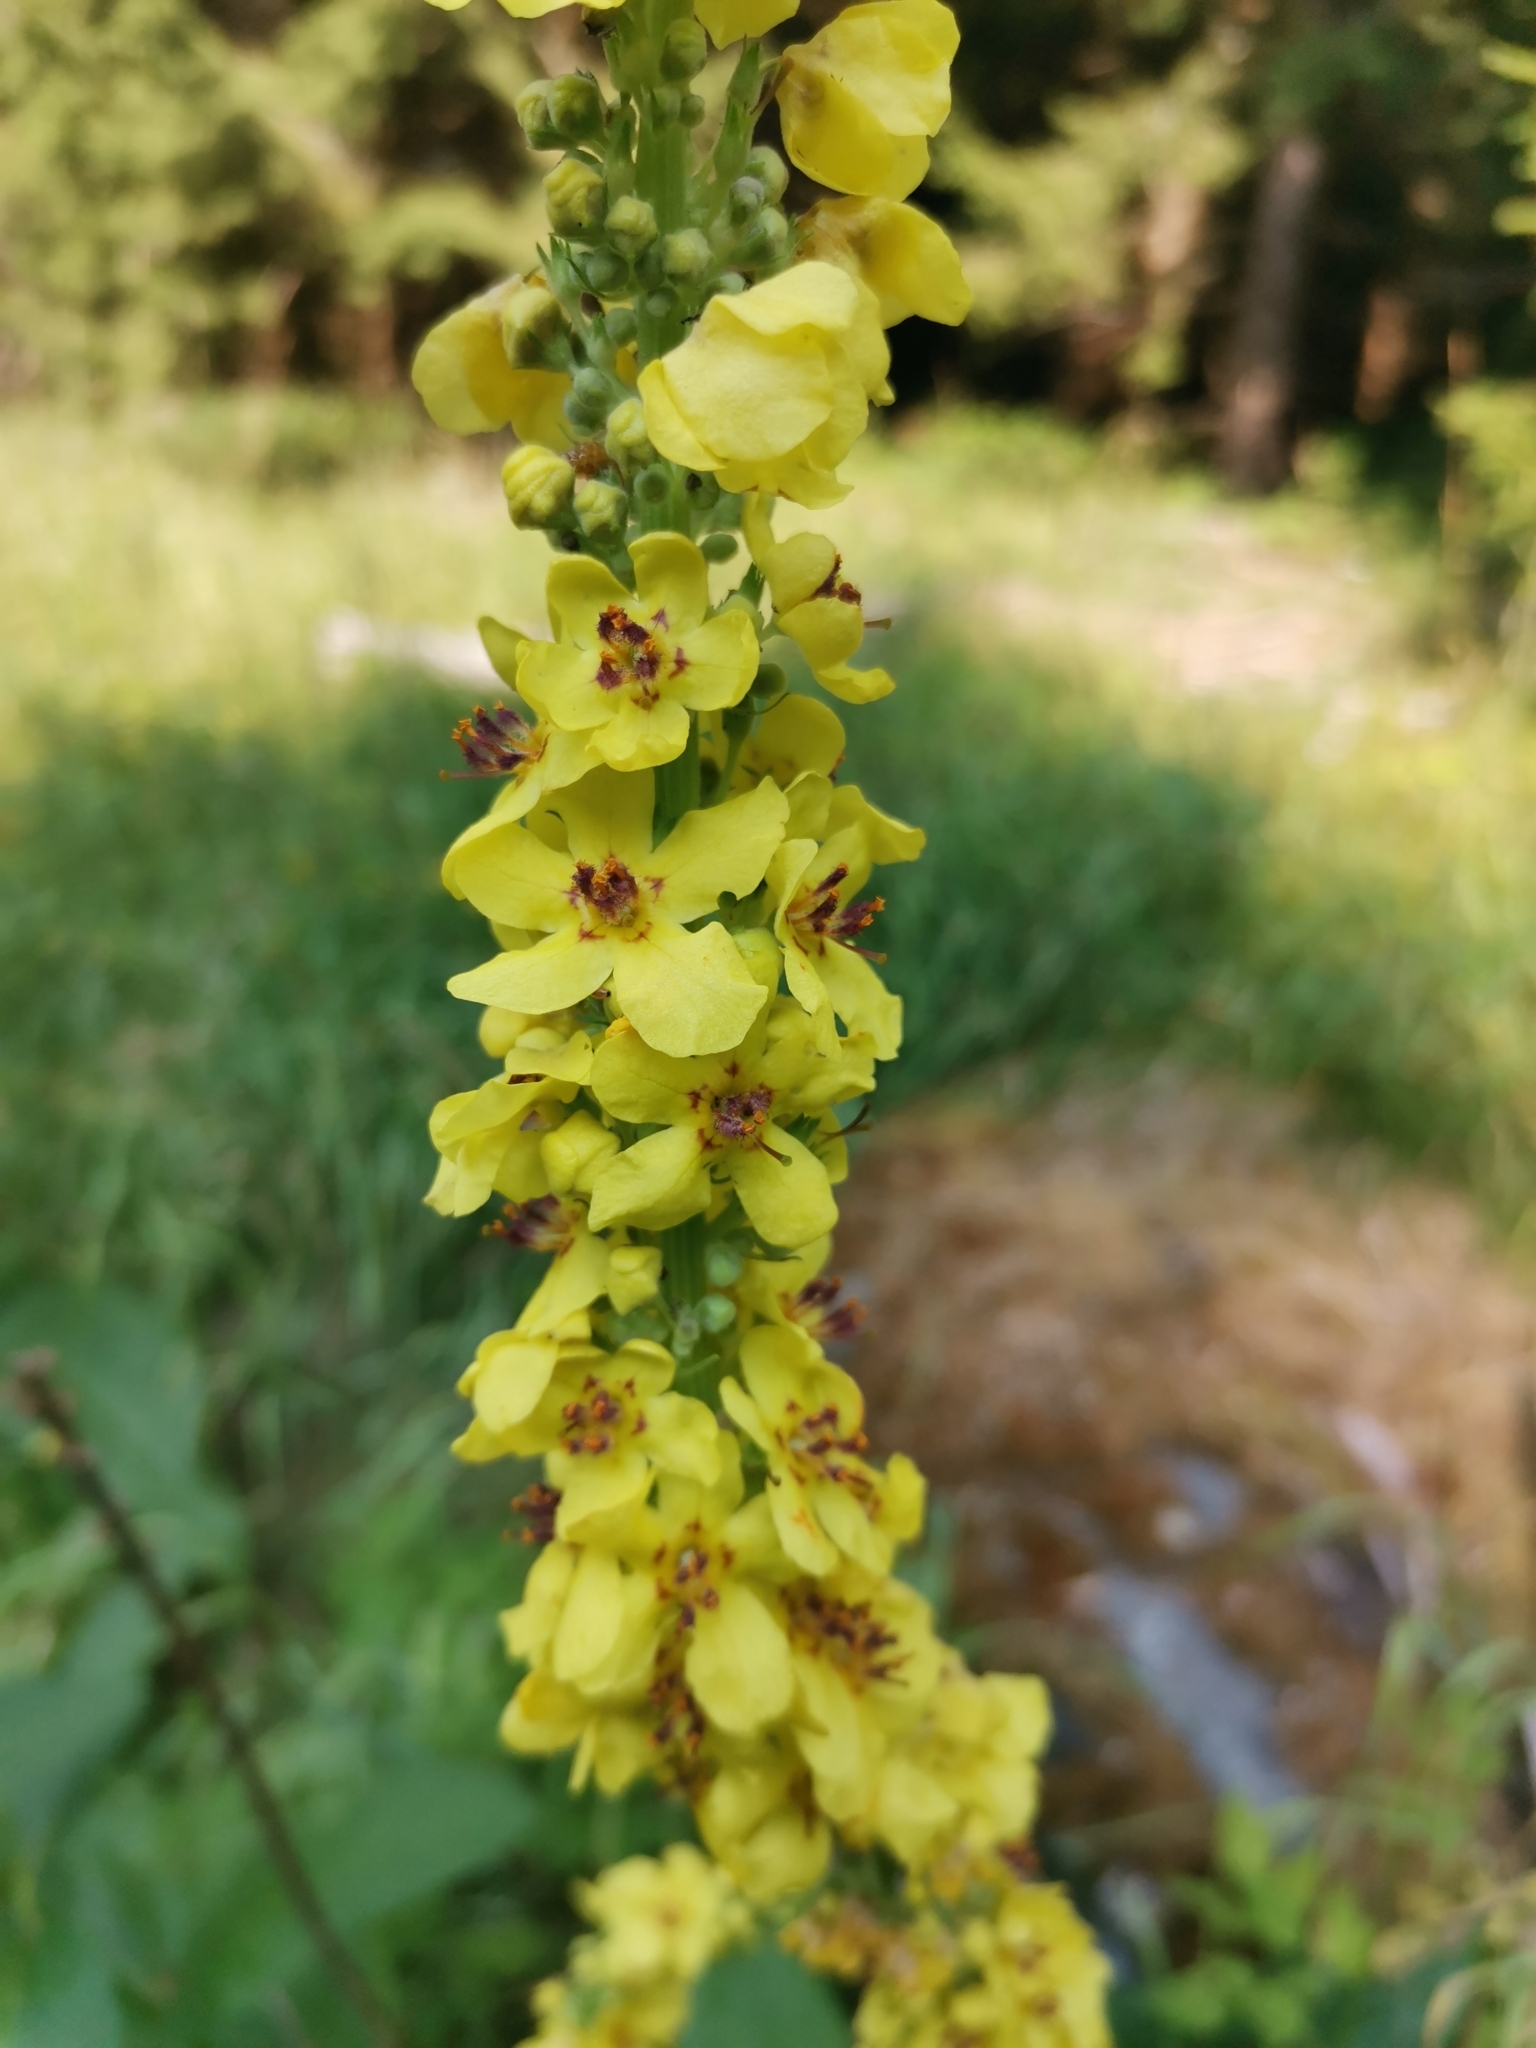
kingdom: Plantae
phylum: Tracheophyta
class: Magnoliopsida
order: Lamiales
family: Scrophulariaceae
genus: Verbascum
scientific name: Verbascum nigrum
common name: Dark mullein
